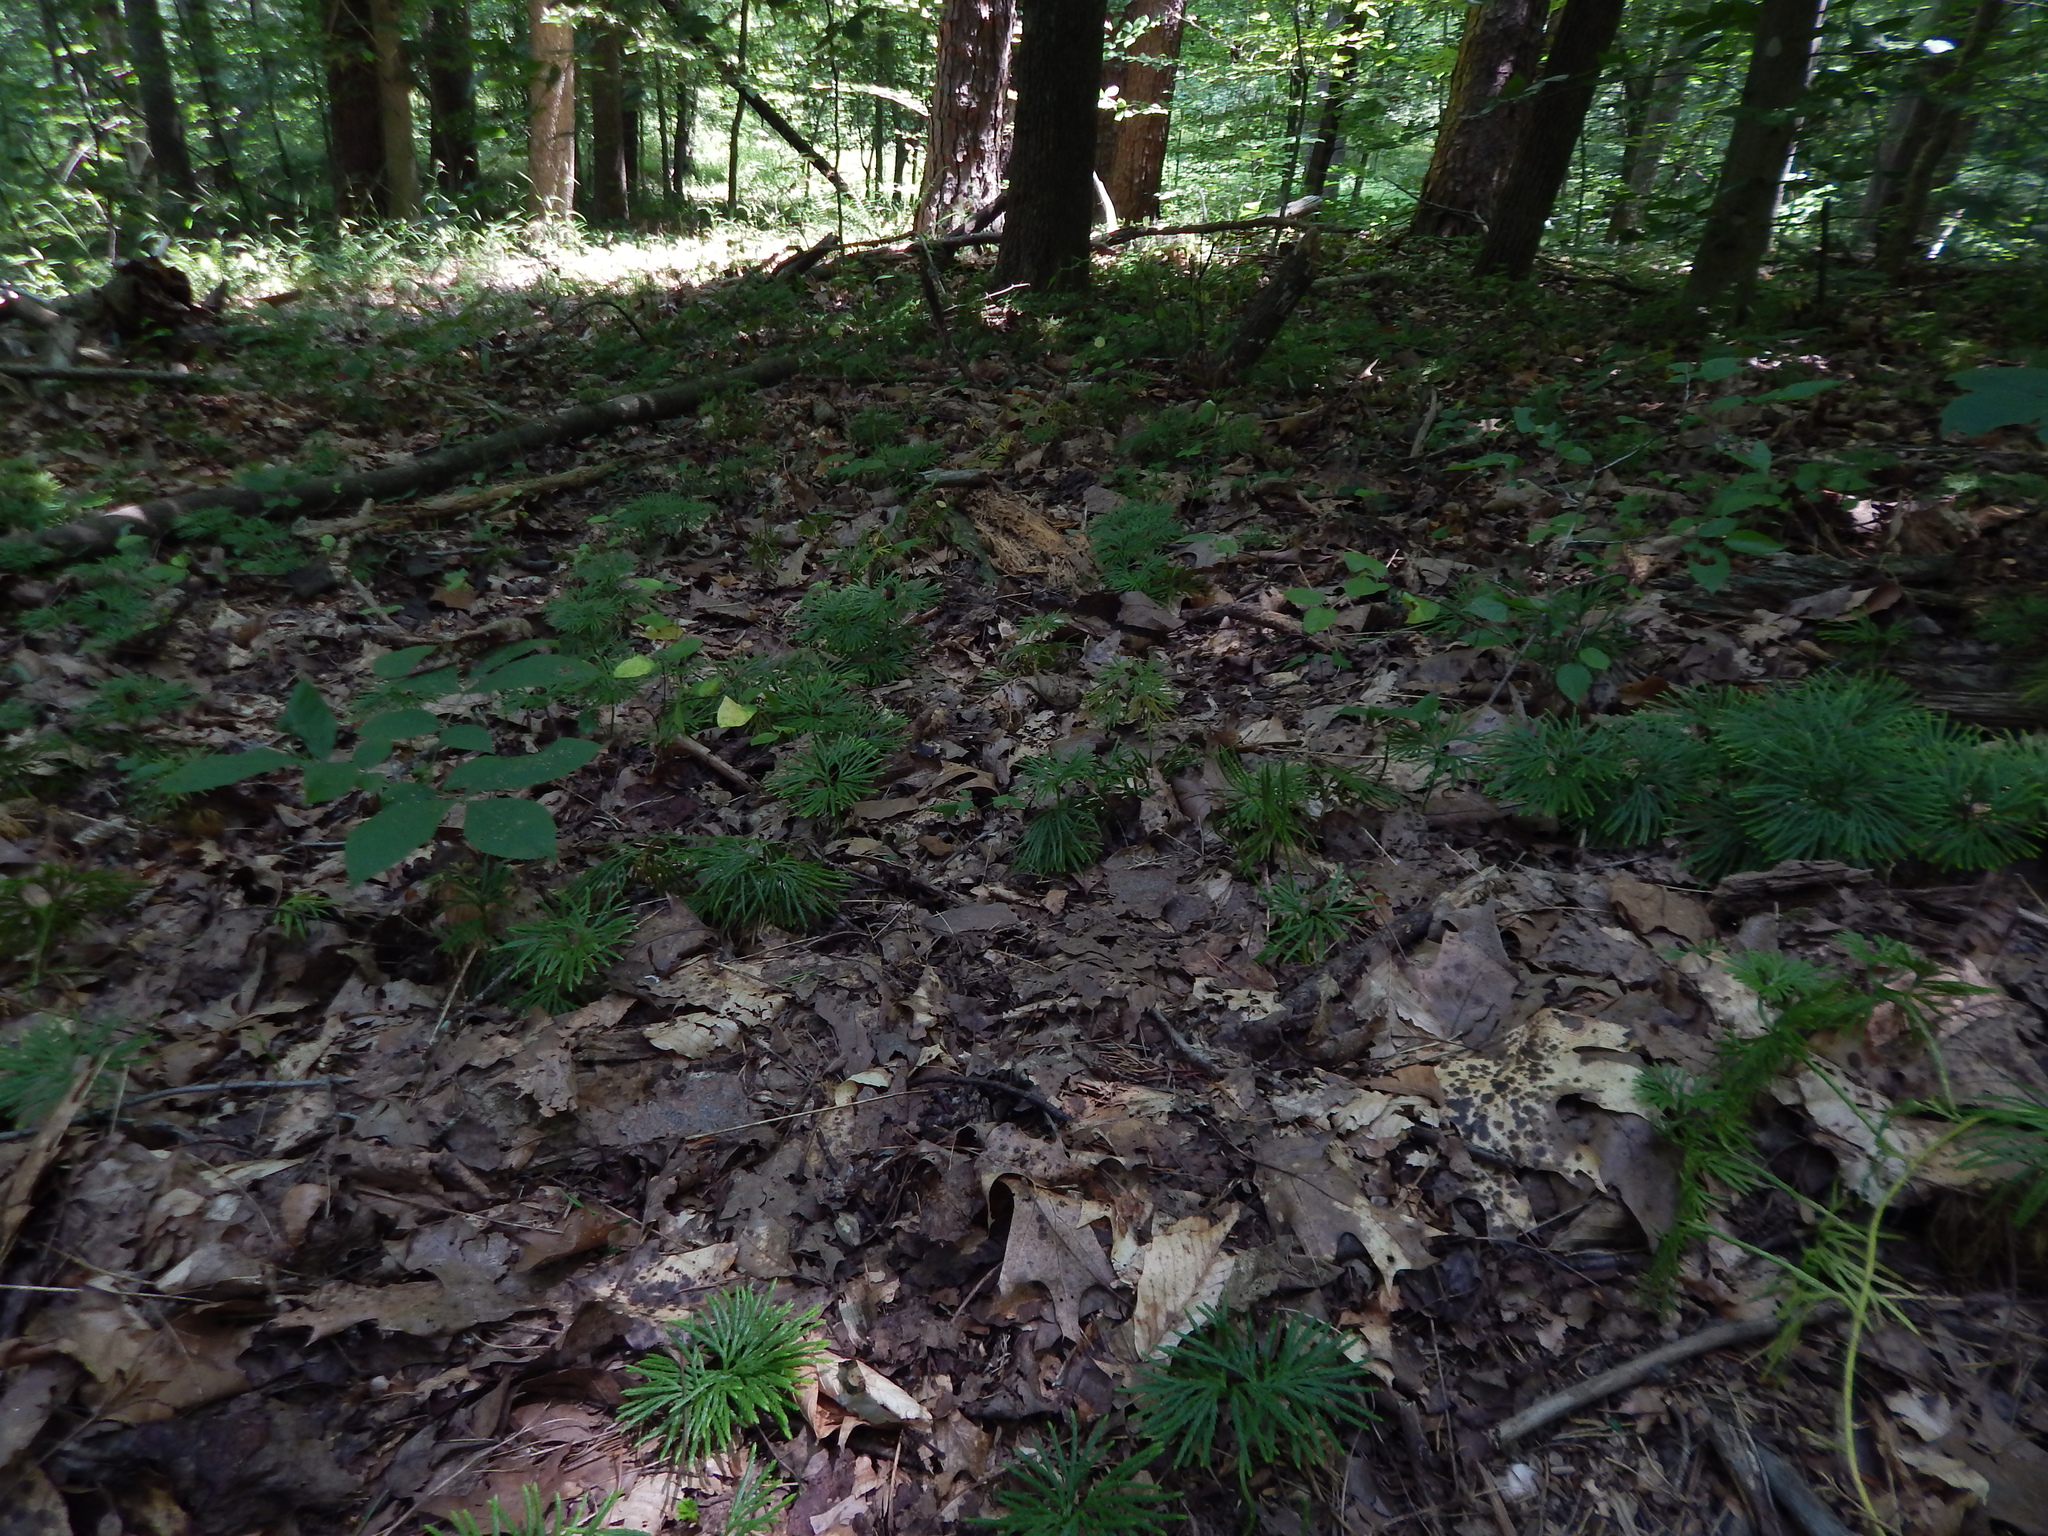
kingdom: Plantae
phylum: Tracheophyta
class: Lycopodiopsida
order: Lycopodiales
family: Lycopodiaceae
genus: Diphasiastrum
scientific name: Diphasiastrum digitatum
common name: Southern running-pine
